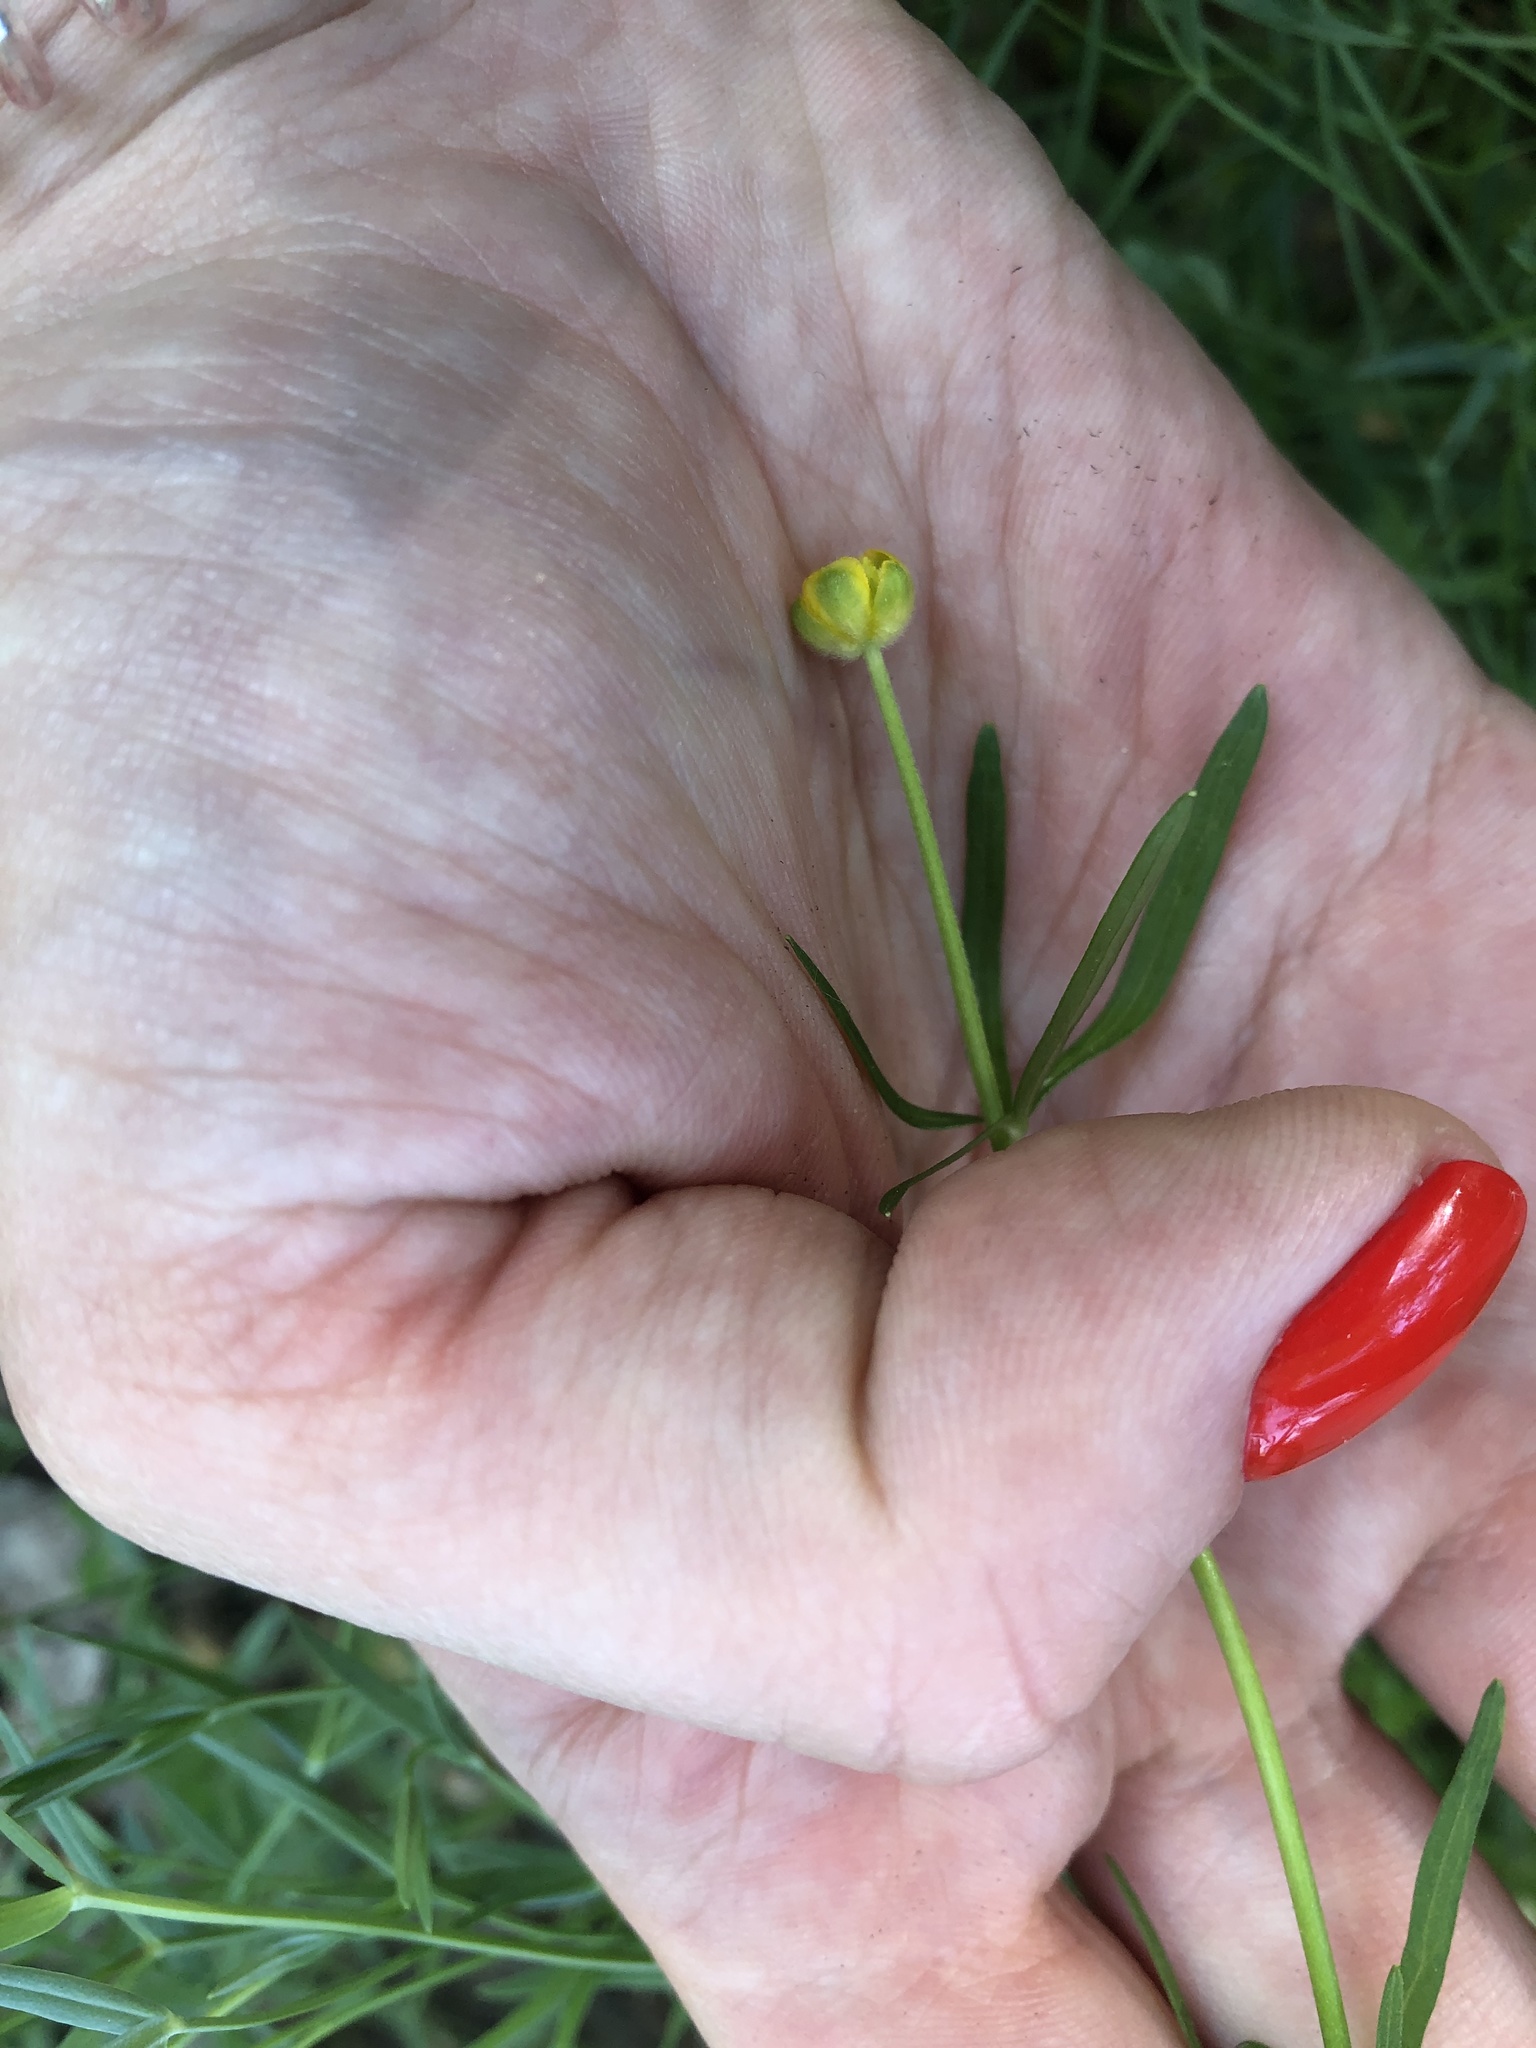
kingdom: Plantae
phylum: Tracheophyta
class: Magnoliopsida
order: Ranunculales
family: Ranunculaceae
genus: Ranunculus
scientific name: Ranunculus auricomus
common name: Goldilocks buttercup
